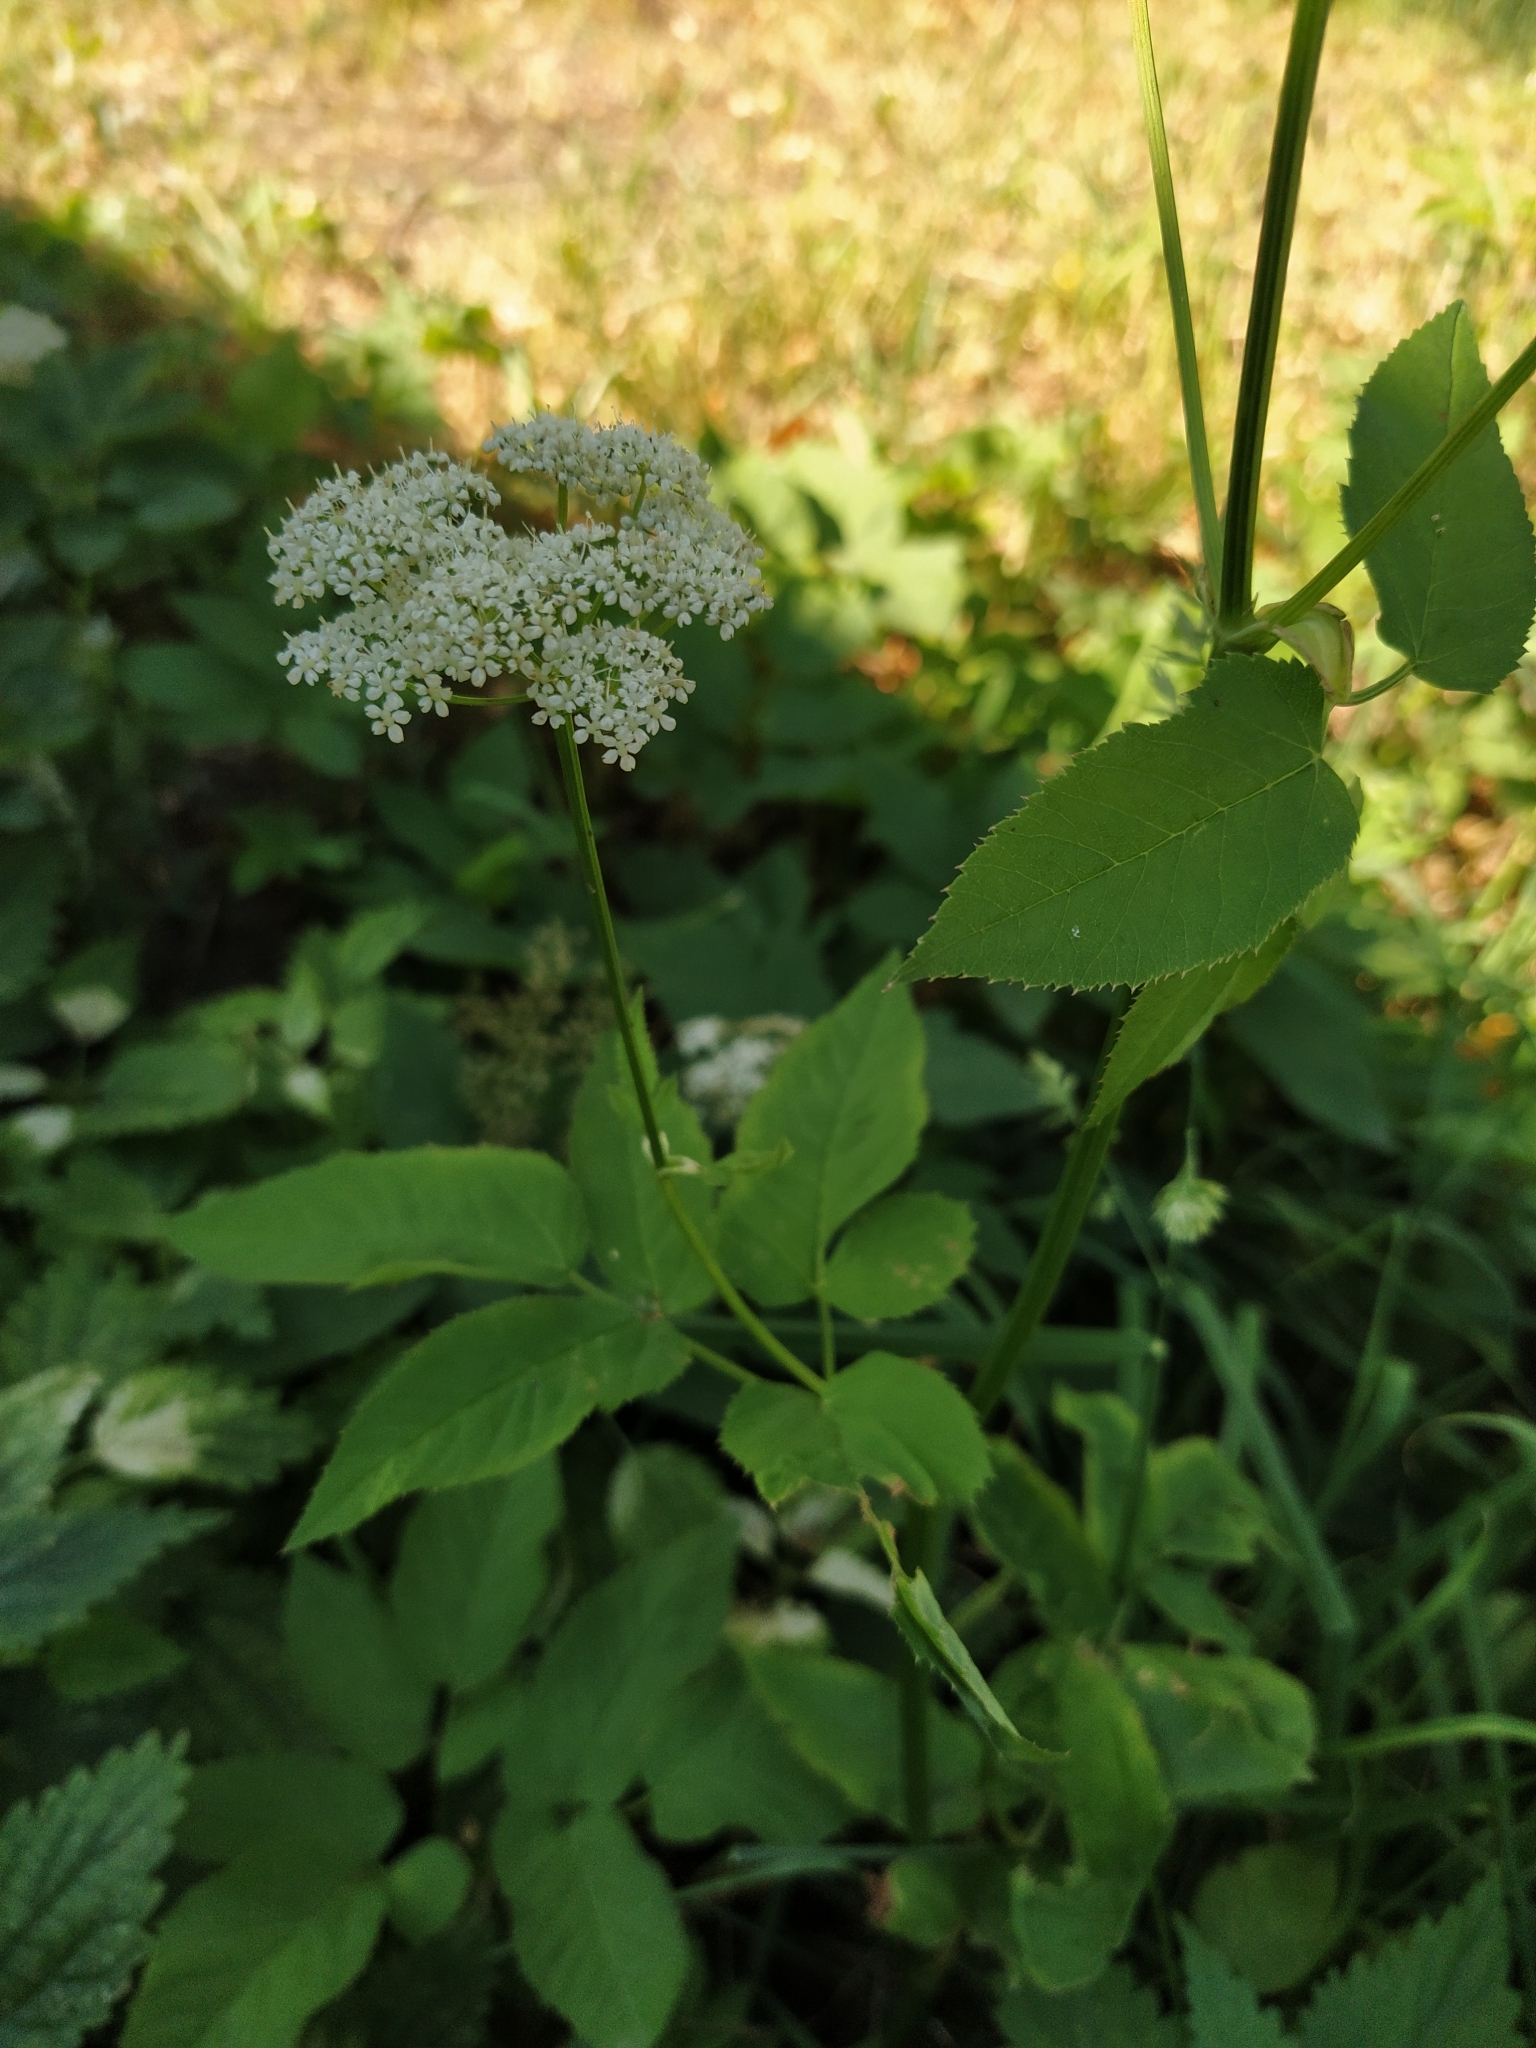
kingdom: Plantae
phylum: Tracheophyta
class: Magnoliopsida
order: Apiales
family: Apiaceae
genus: Aegopodium
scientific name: Aegopodium podagraria
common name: Ground-elder
